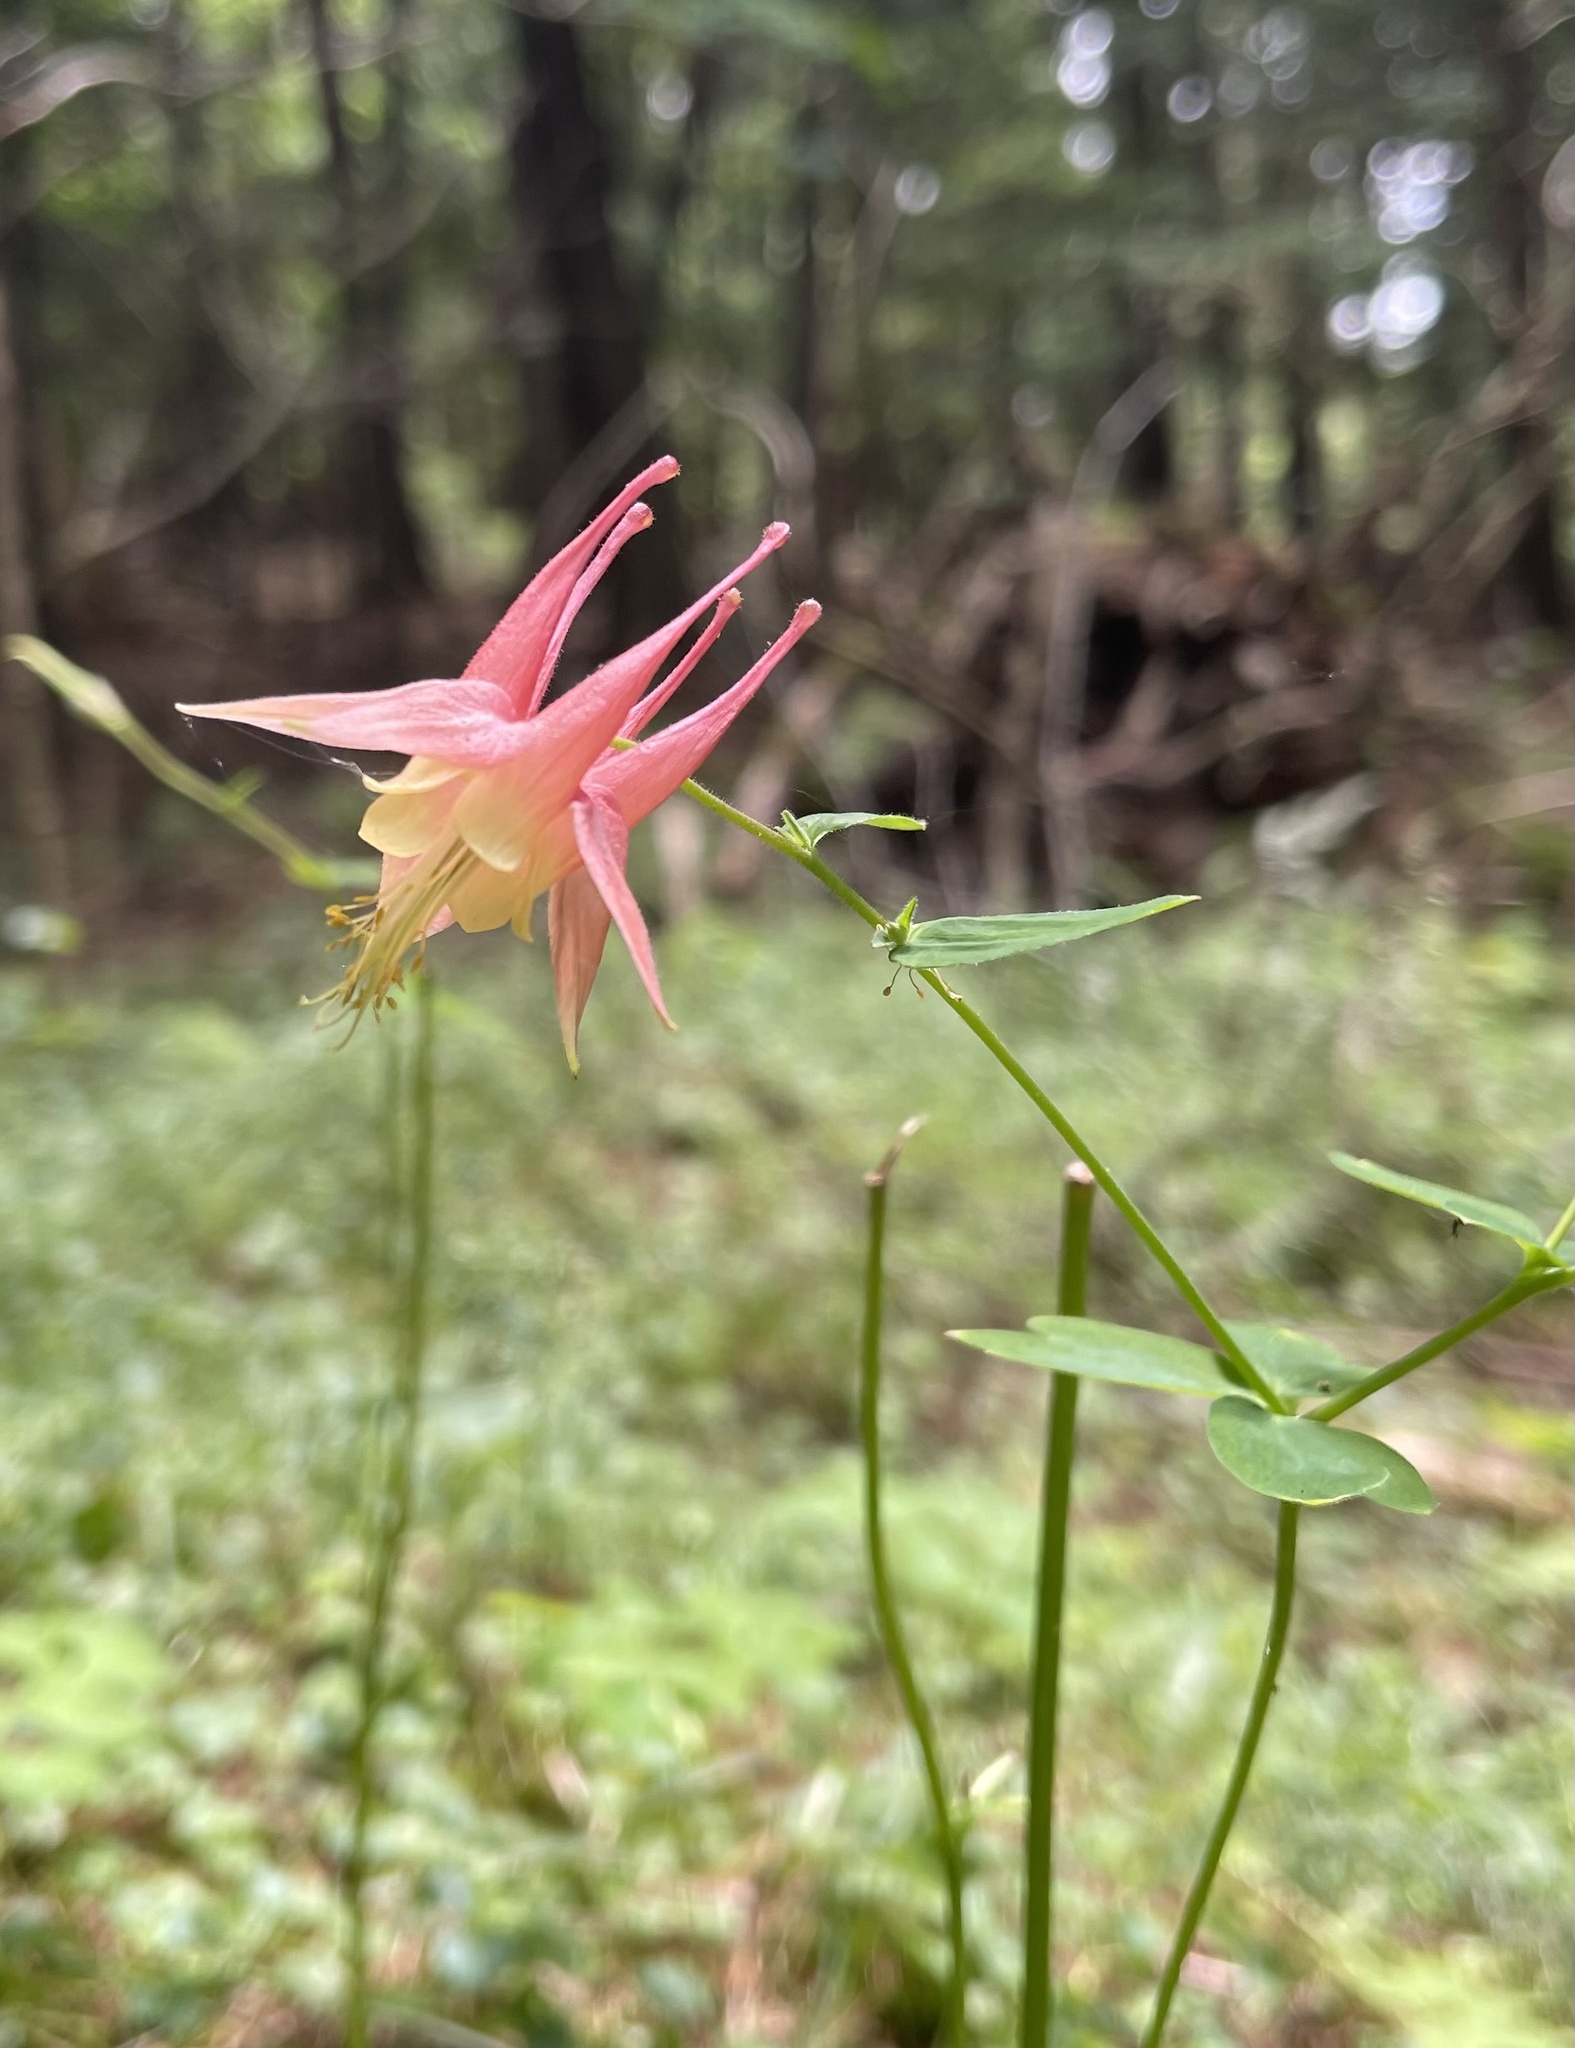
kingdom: Plantae
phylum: Tracheophyta
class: Magnoliopsida
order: Ranunculales
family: Ranunculaceae
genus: Aquilegia
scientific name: Aquilegia canadensis
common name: American columbine
